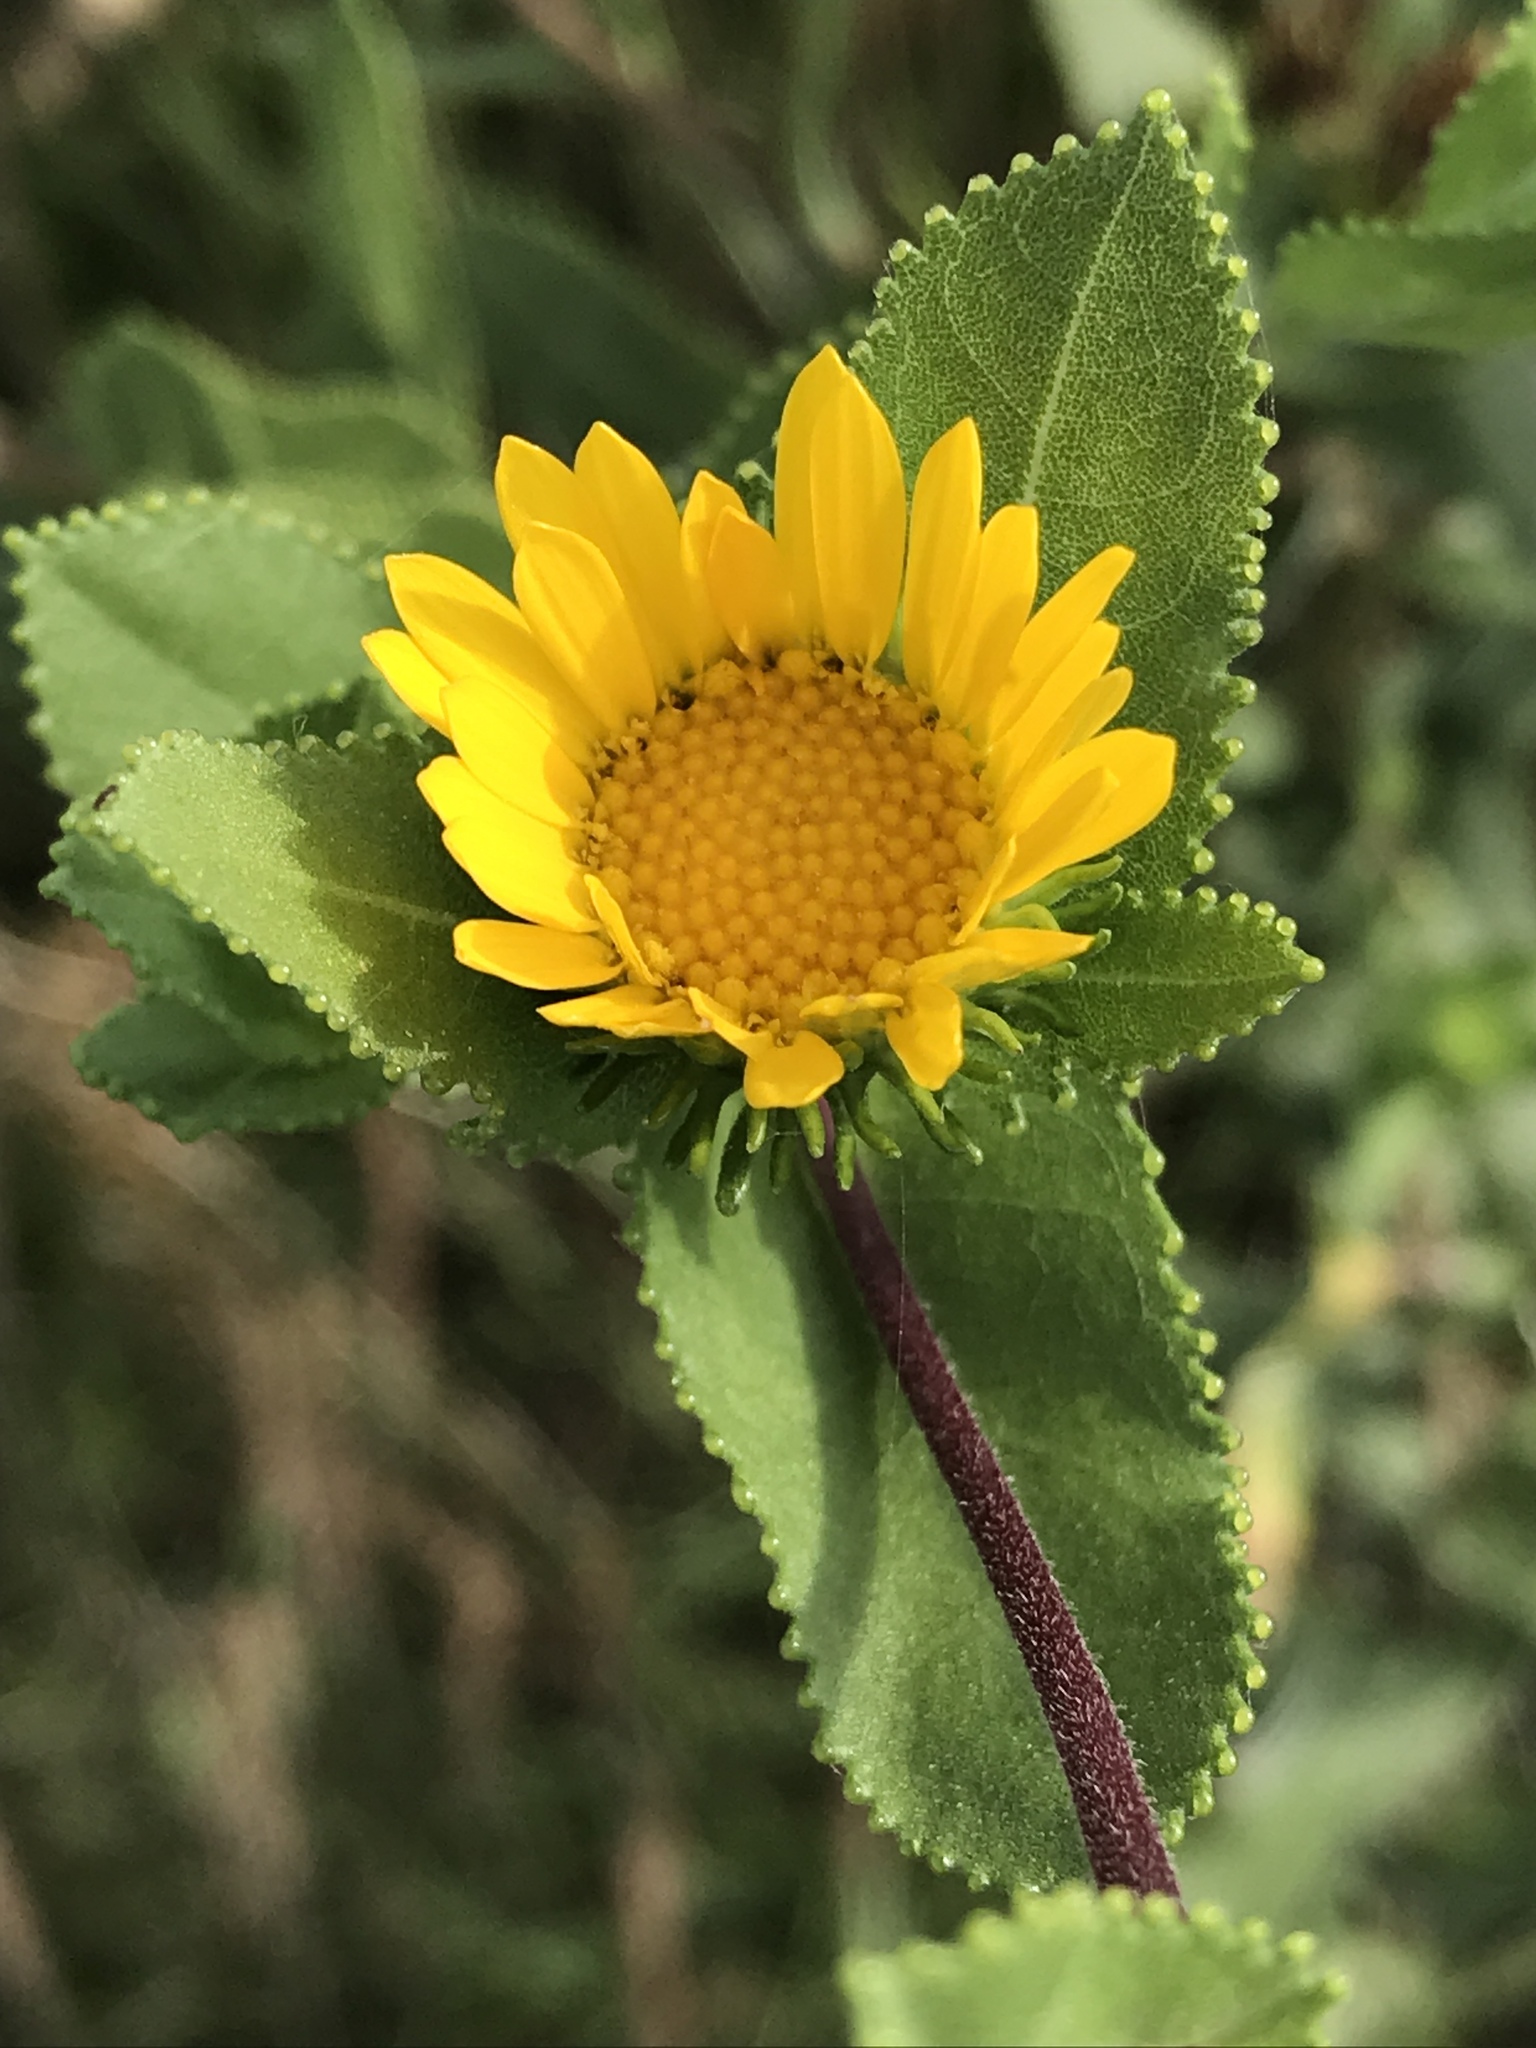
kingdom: Plantae
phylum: Tracheophyta
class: Magnoliopsida
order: Asterales
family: Asteraceae
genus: Grindelia
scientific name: Grindelia adenodonta
